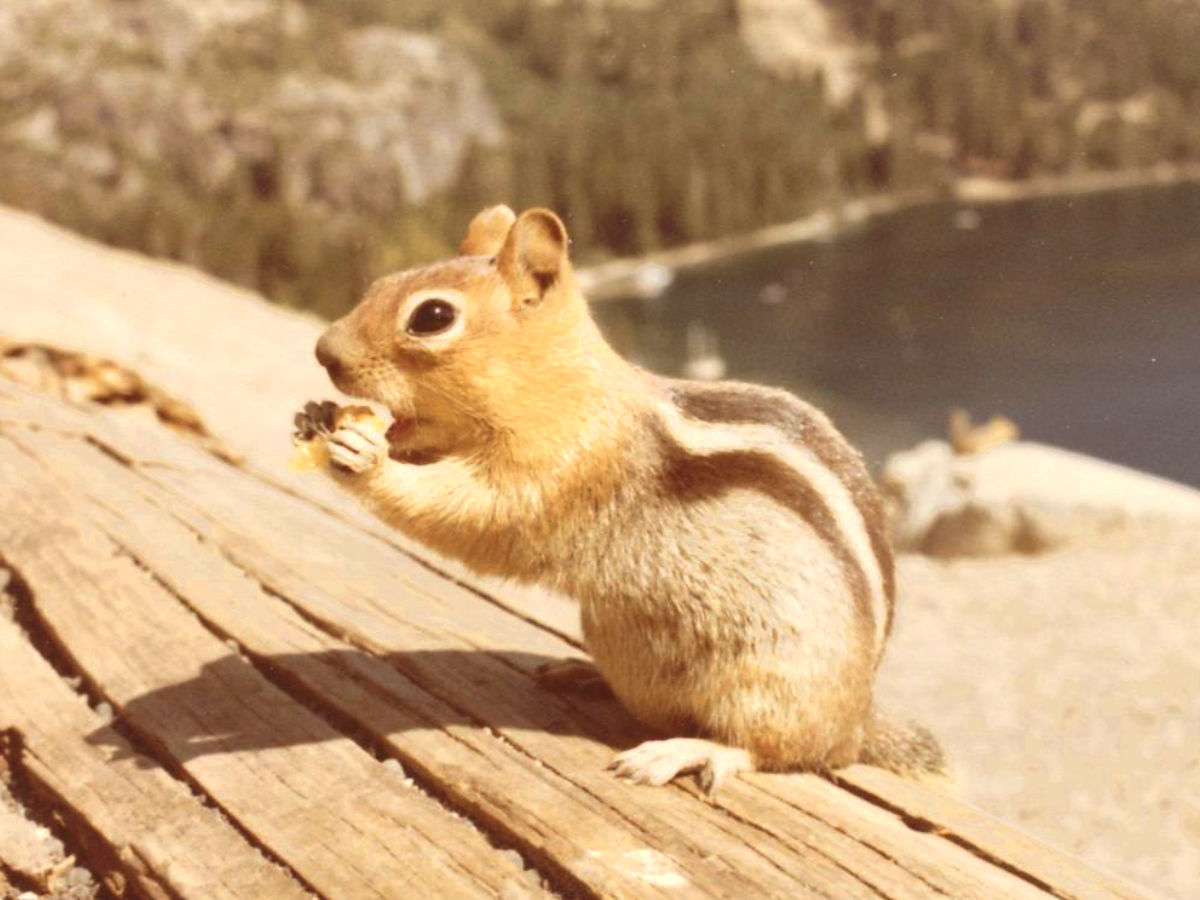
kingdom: Animalia
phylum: Chordata
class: Mammalia
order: Rodentia
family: Sciuridae
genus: Callospermophilus
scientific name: Callospermophilus lateralis
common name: Golden-mantled ground squirrel
